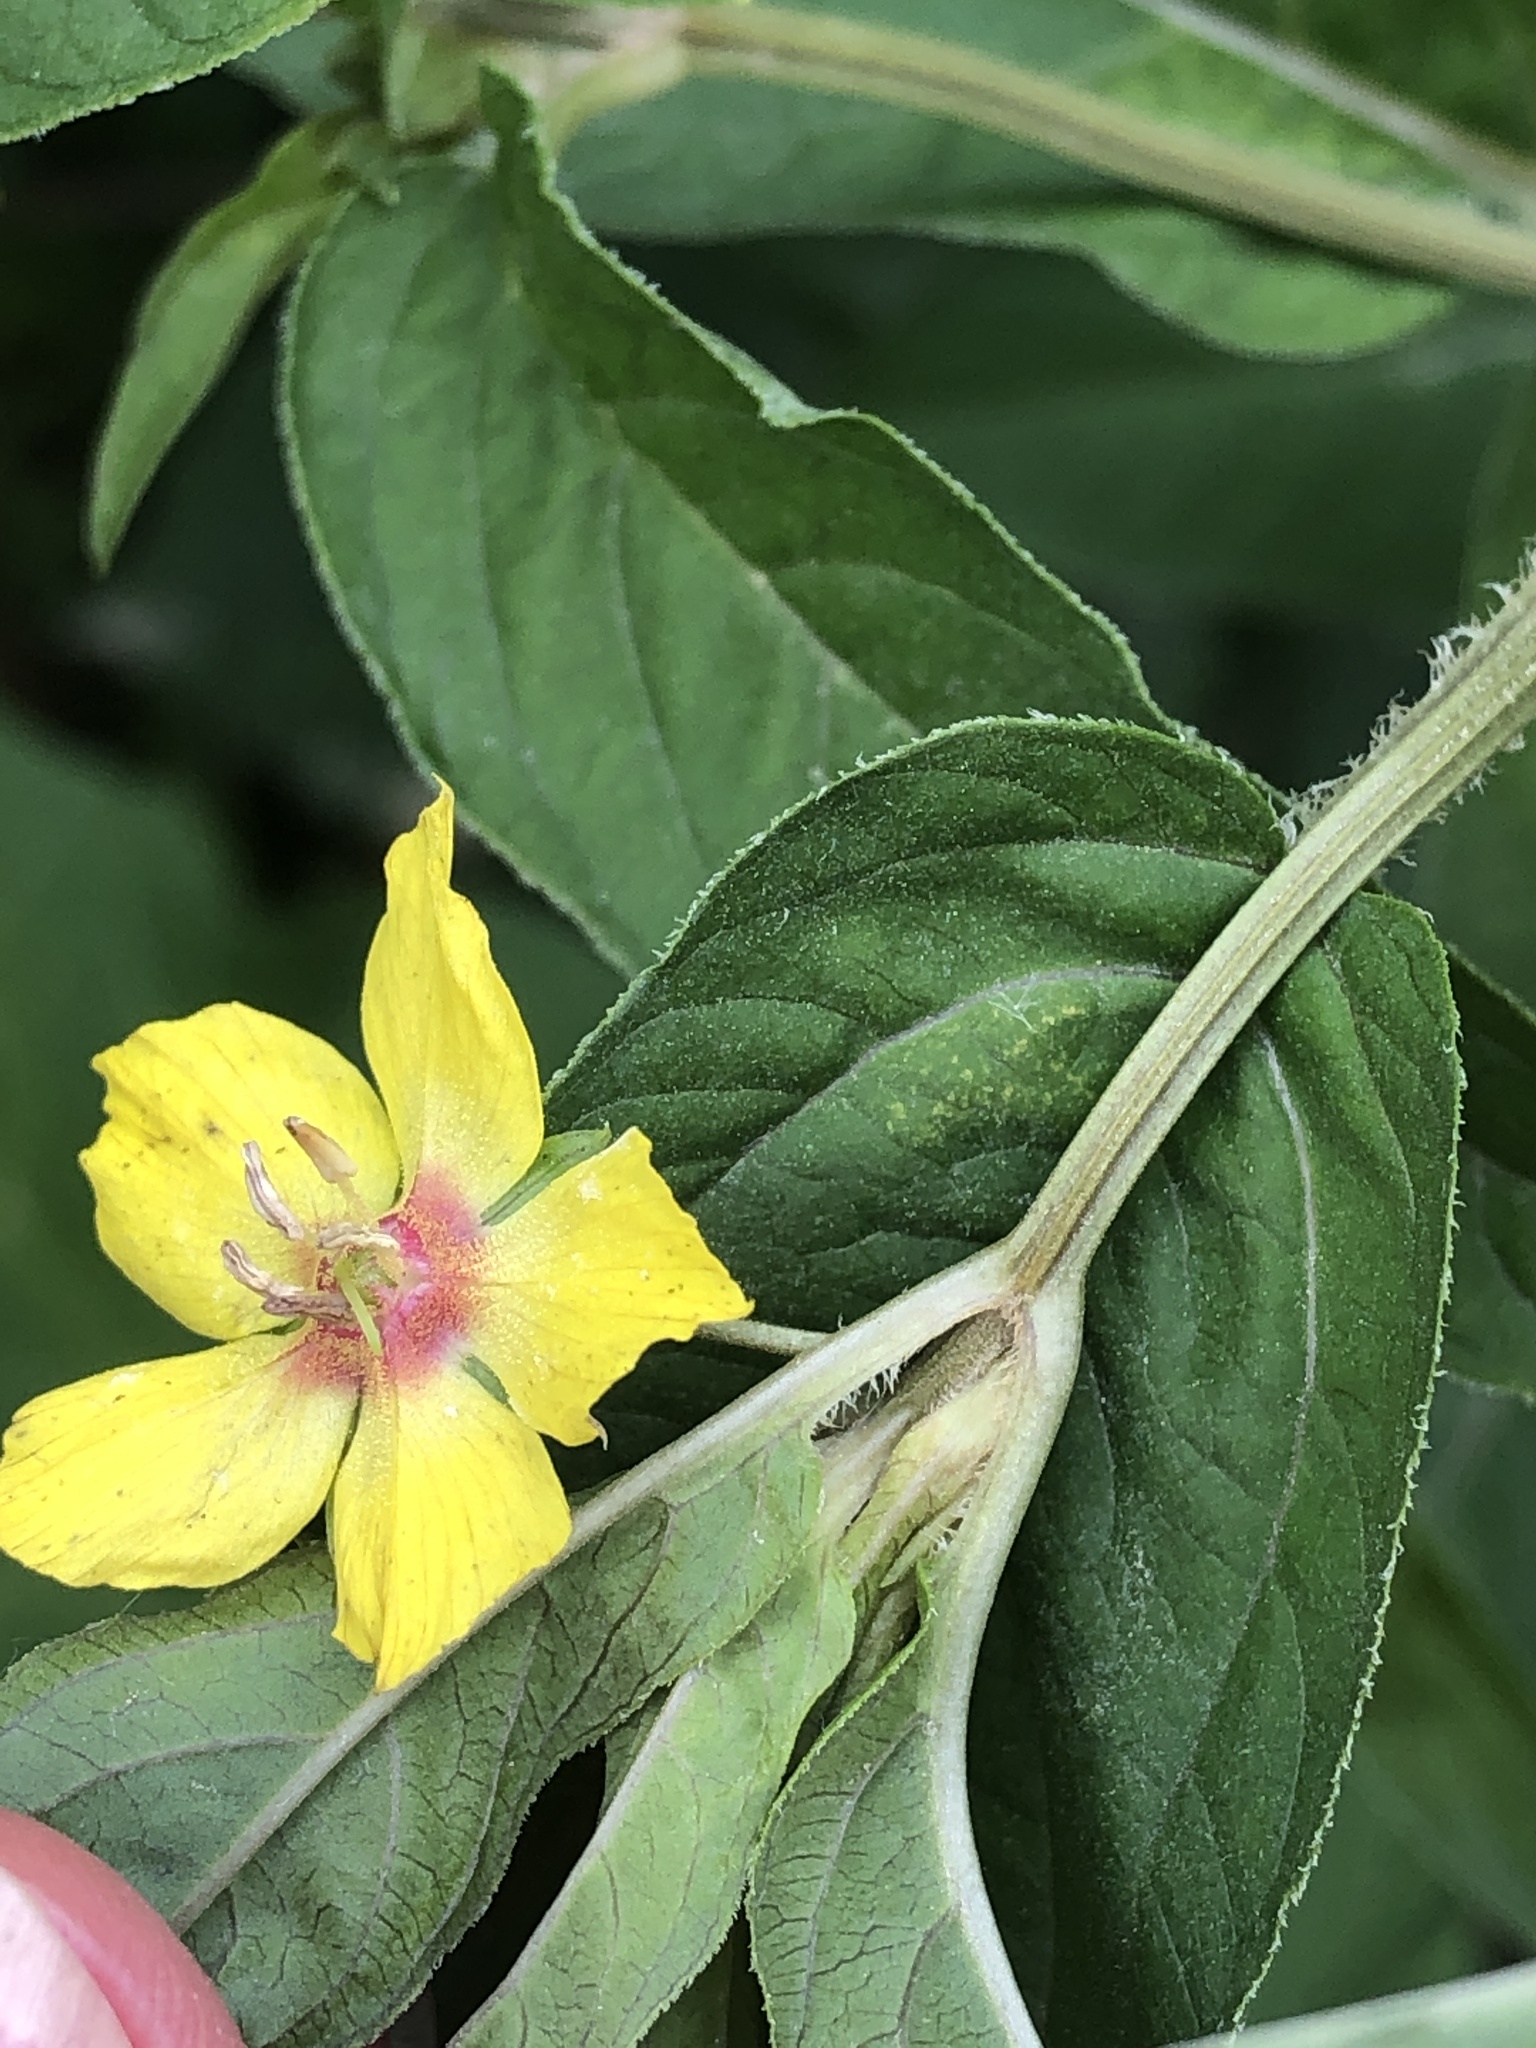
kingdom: Plantae
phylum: Tracheophyta
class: Magnoliopsida
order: Ericales
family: Primulaceae
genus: Lysimachia
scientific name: Lysimachia ciliata
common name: Fringed loosestrife
